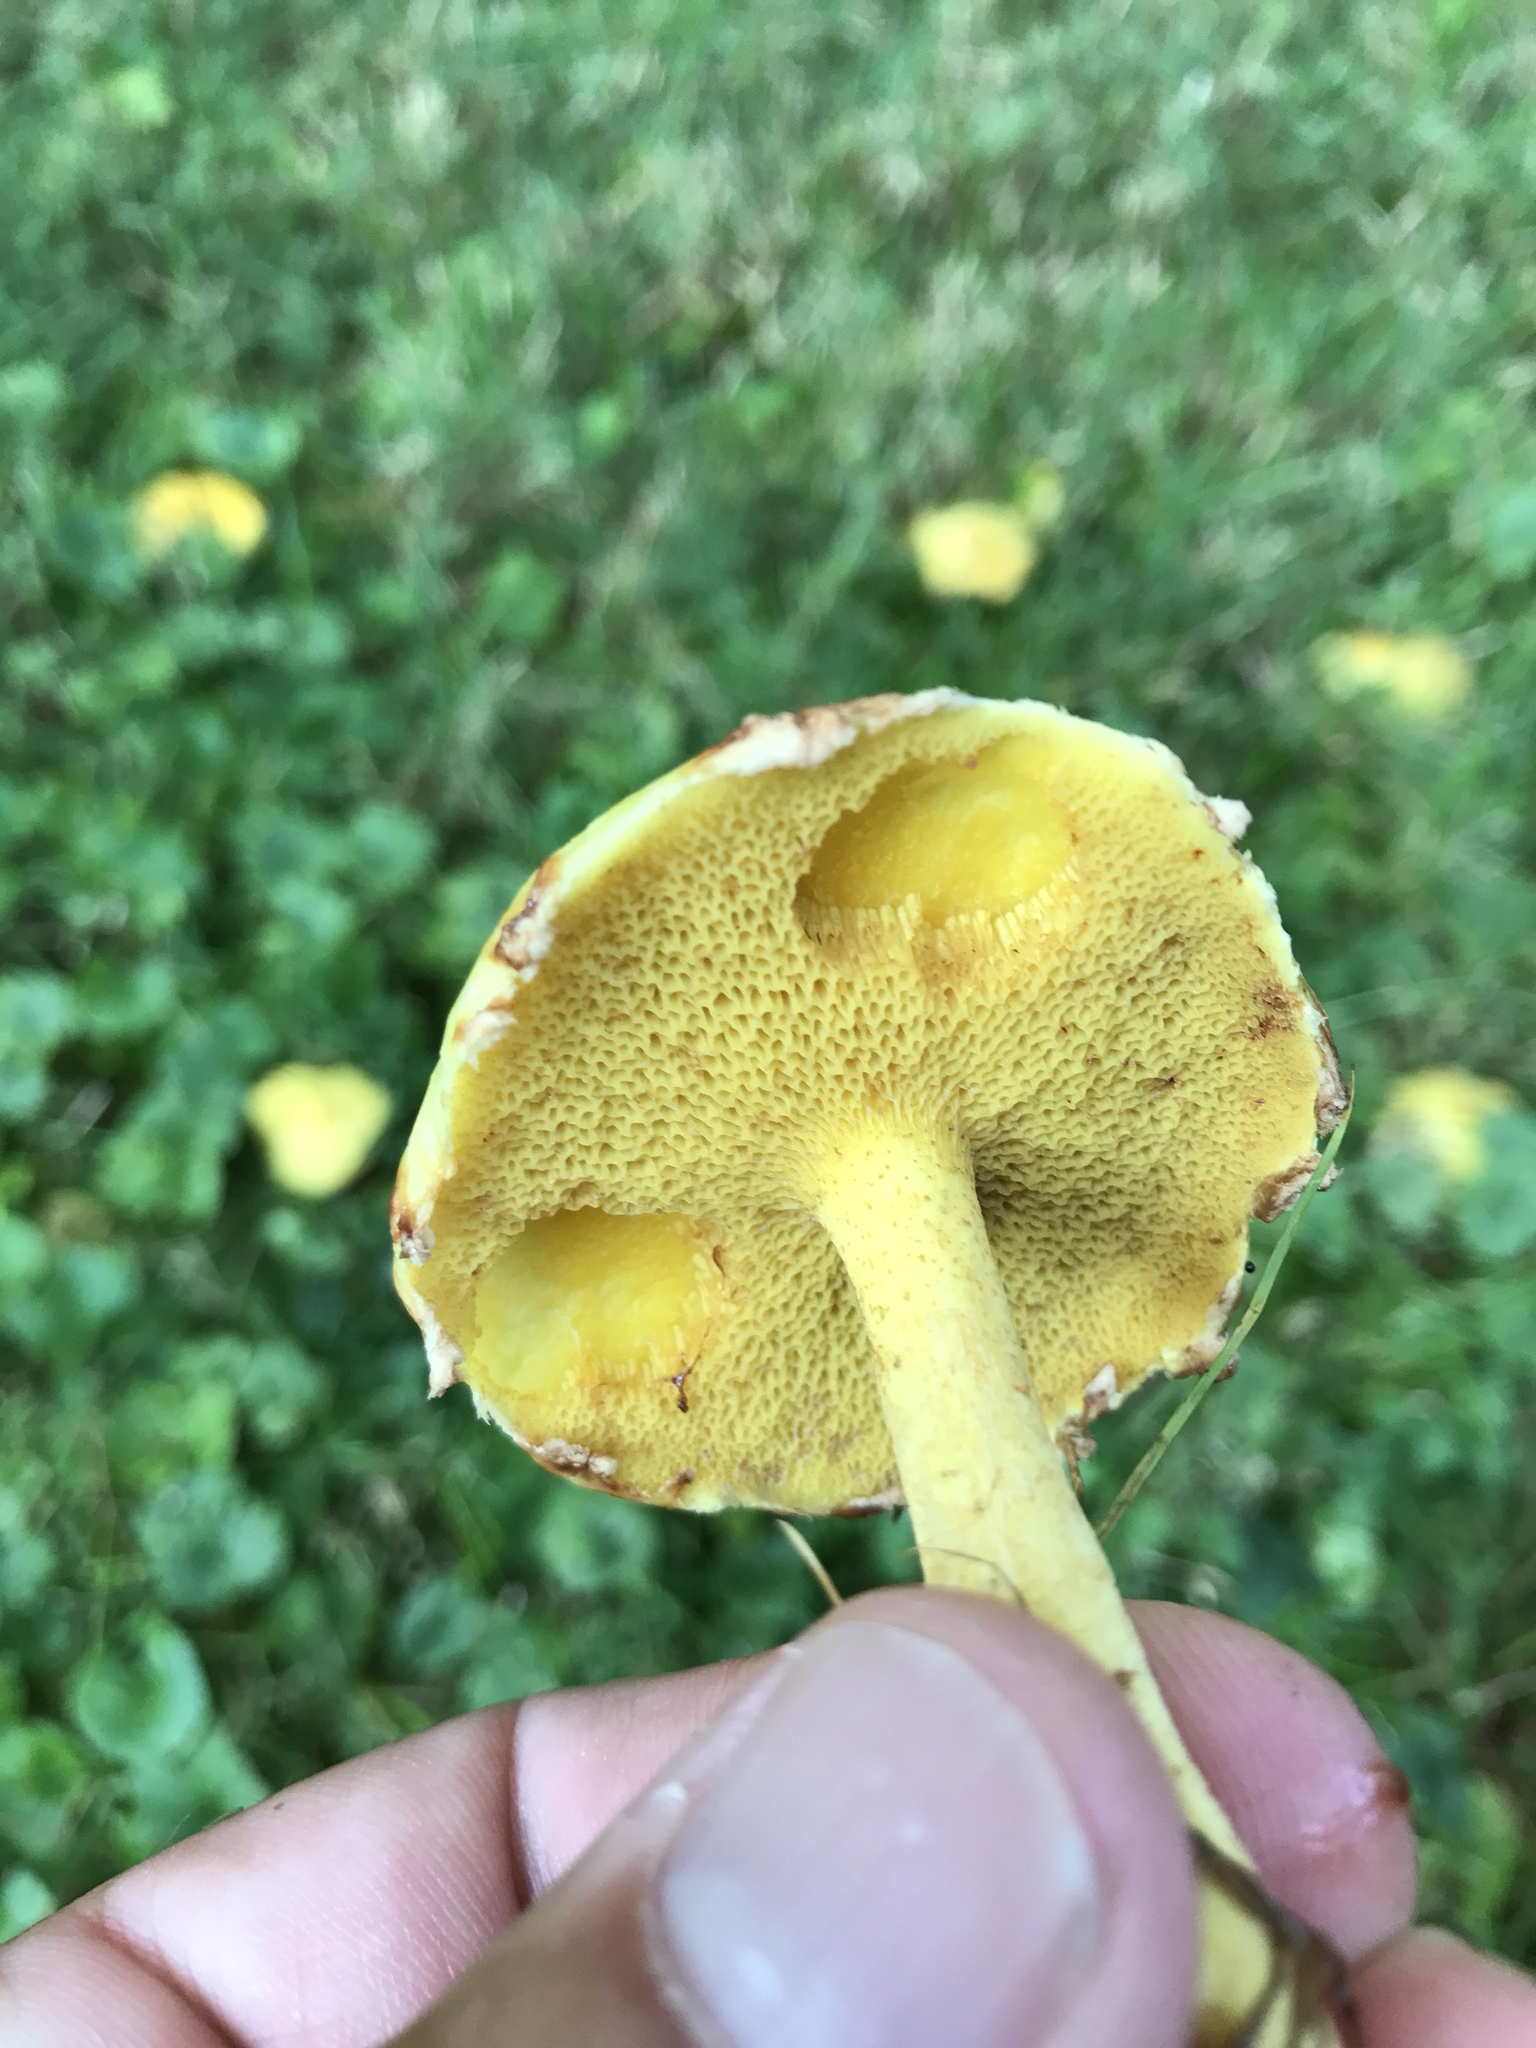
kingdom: Fungi
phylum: Basidiomycota
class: Agaricomycetes
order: Boletales
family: Suillaceae
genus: Suillus
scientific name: Suillus americanus
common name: Chicken fat mushroom
